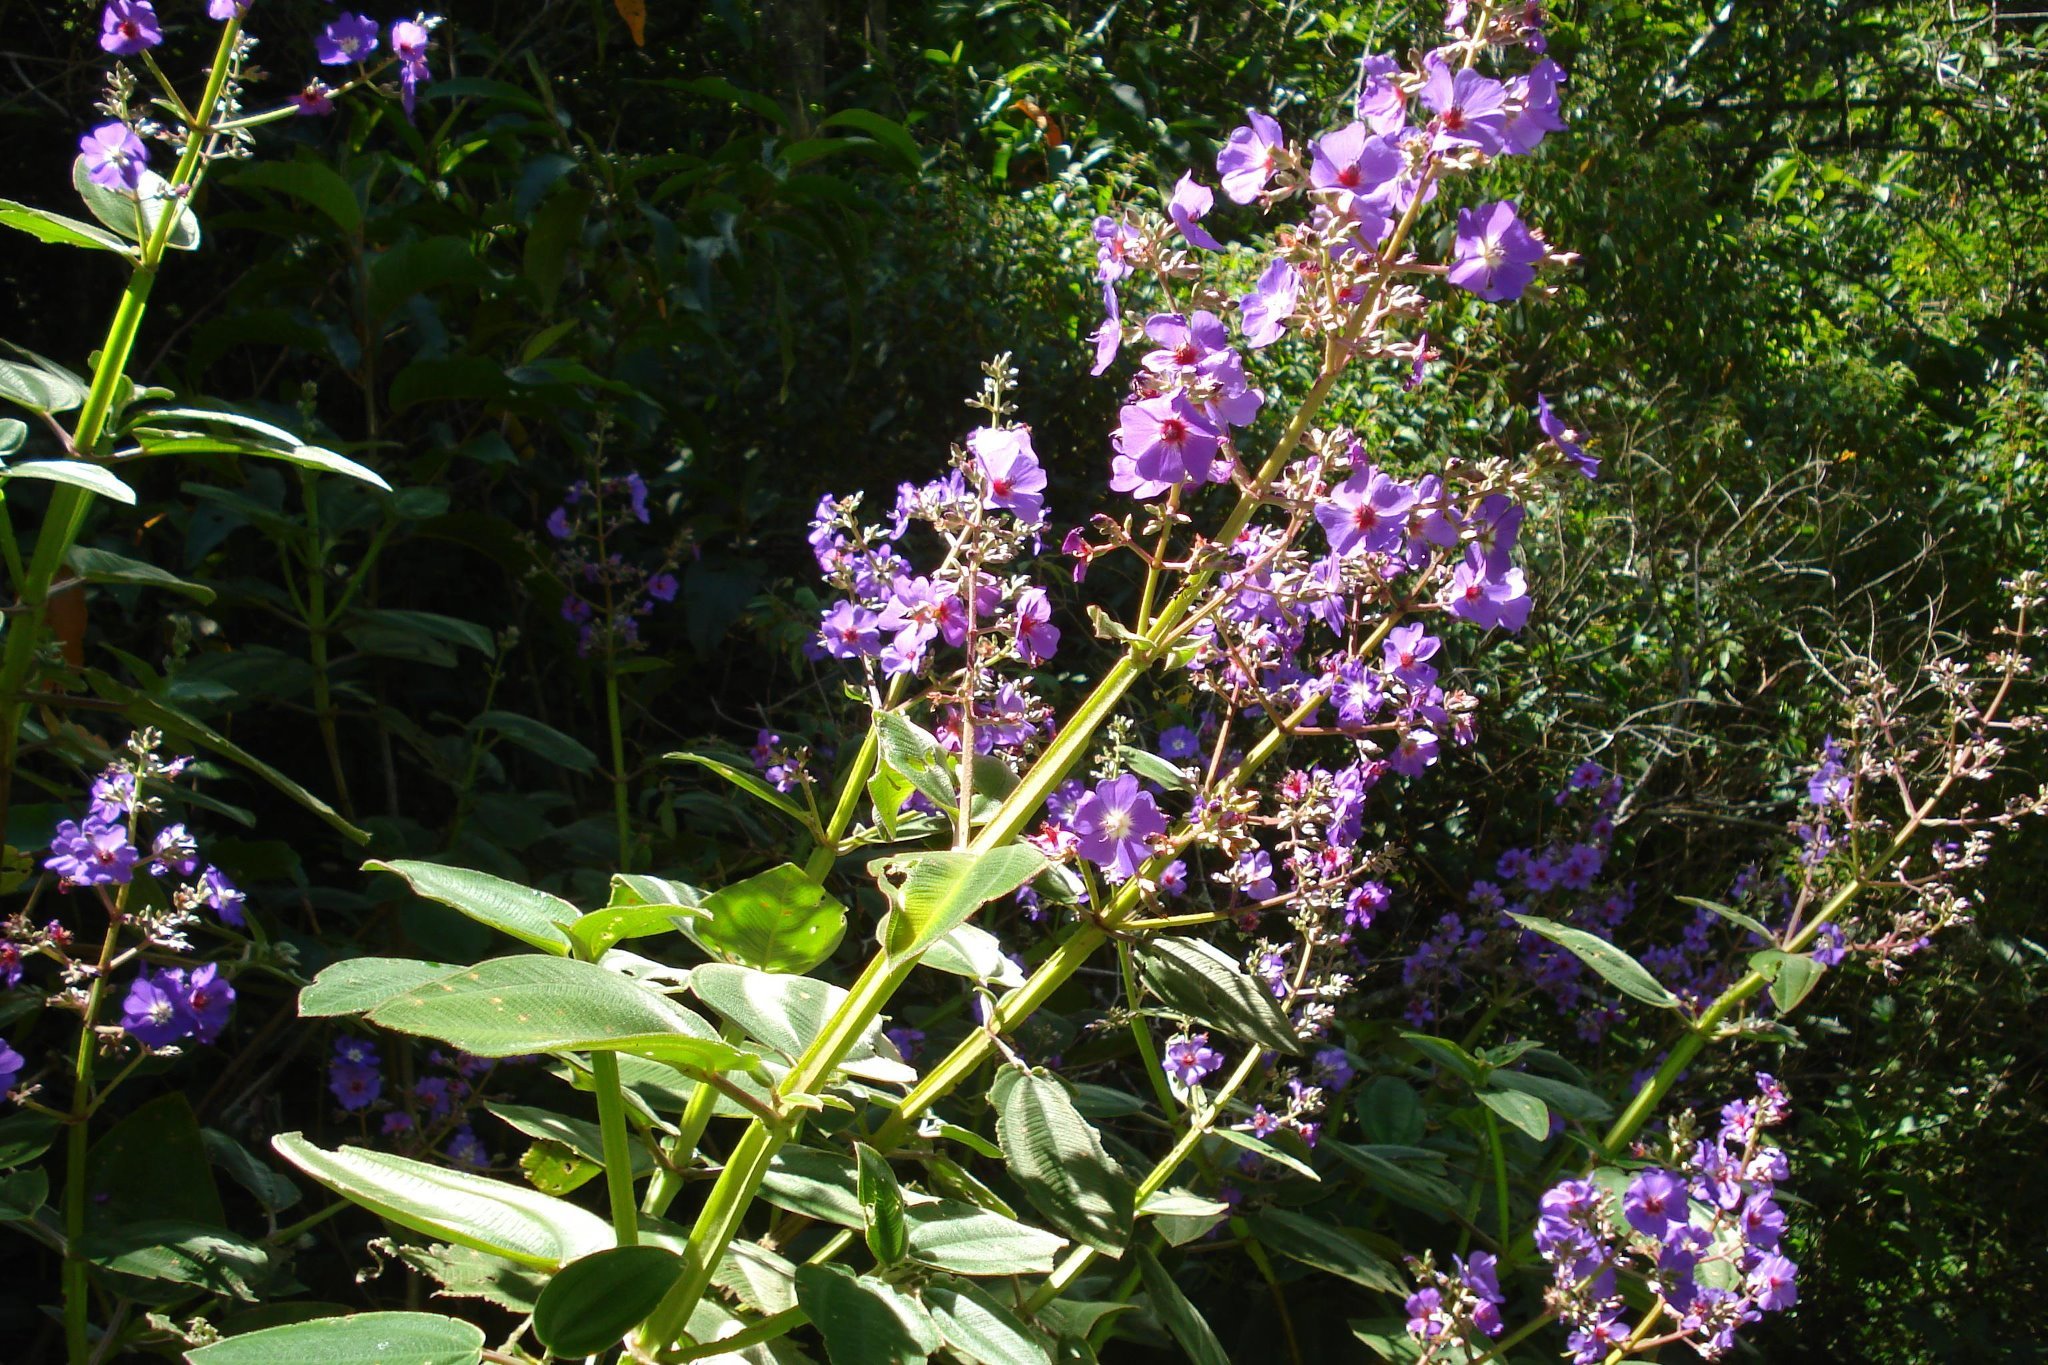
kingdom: Plantae
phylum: Tracheophyta
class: Magnoliopsida
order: Myrtales
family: Melastomataceae
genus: Pleroma
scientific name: Pleroma heteromallum
